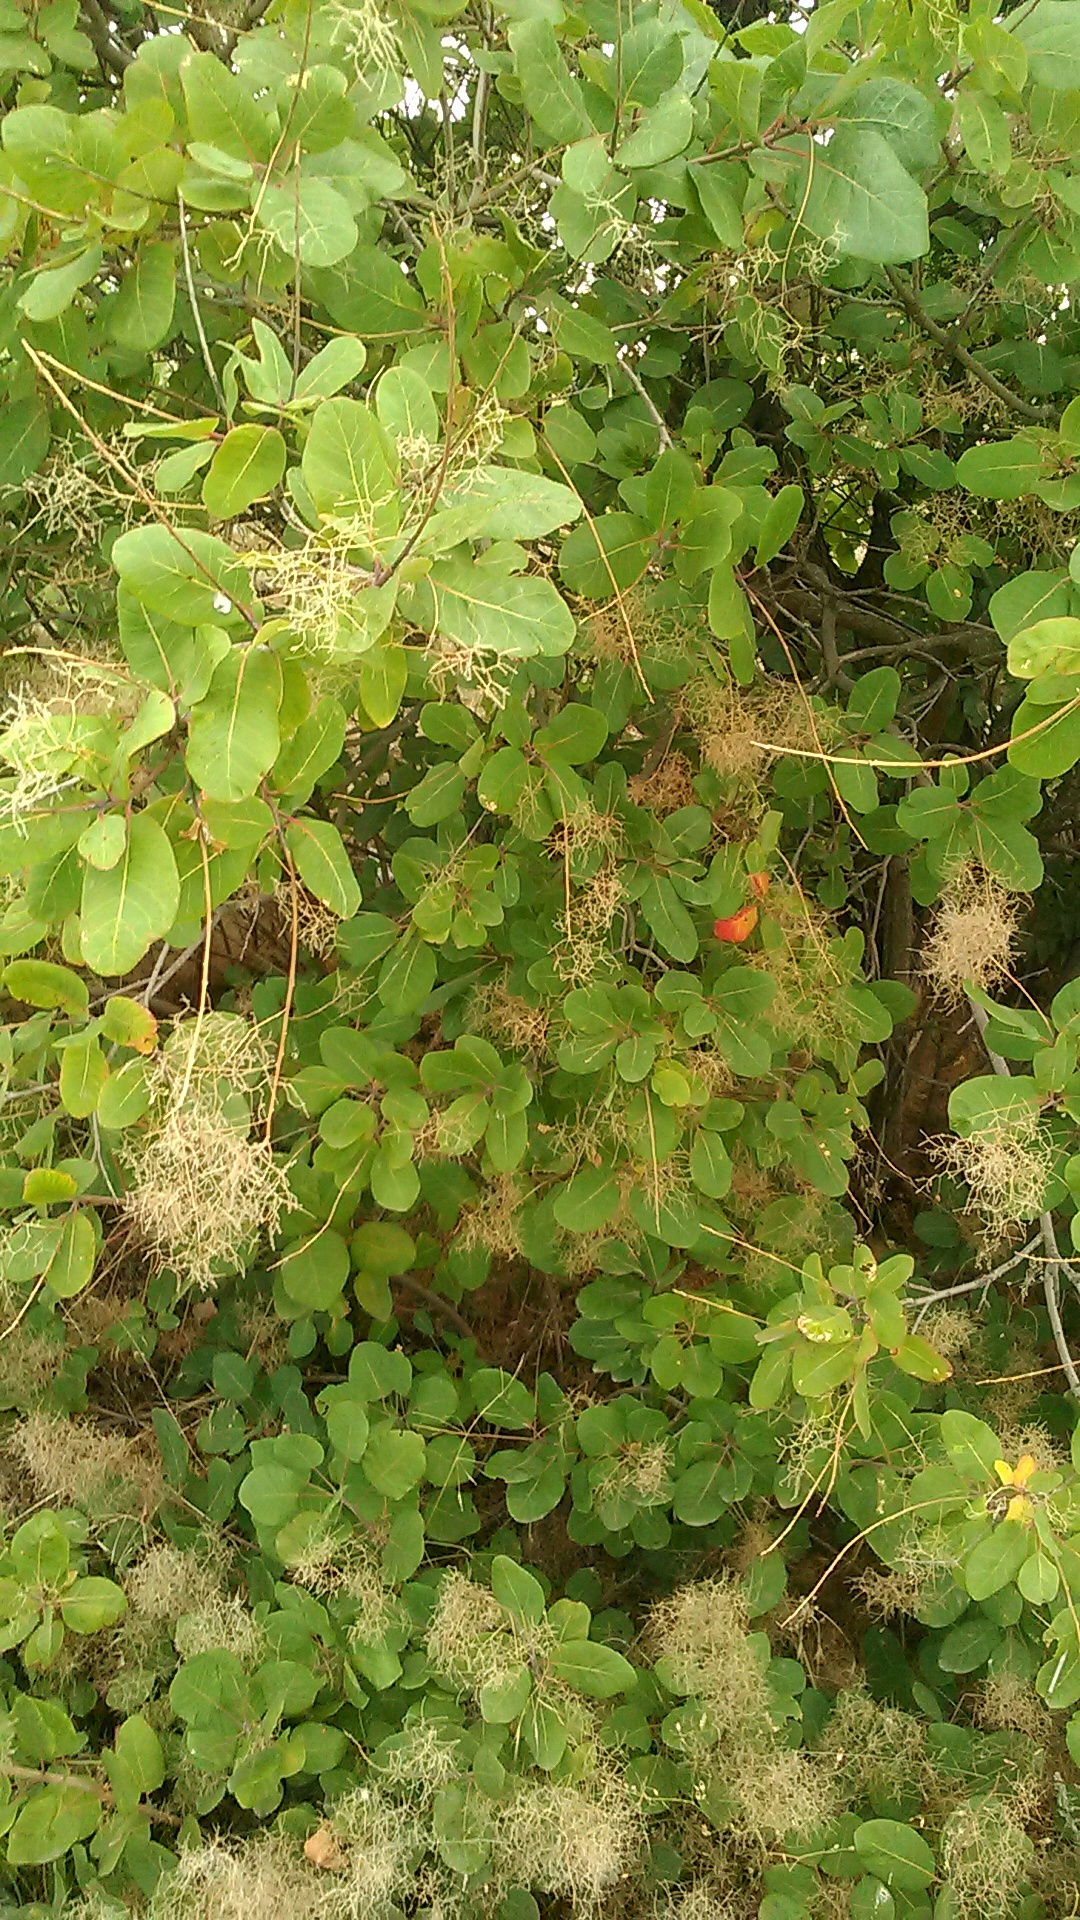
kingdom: Plantae
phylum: Tracheophyta
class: Magnoliopsida
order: Sapindales
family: Anacardiaceae
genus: Cotinus
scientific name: Cotinus coggygria
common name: Smoke-tree
